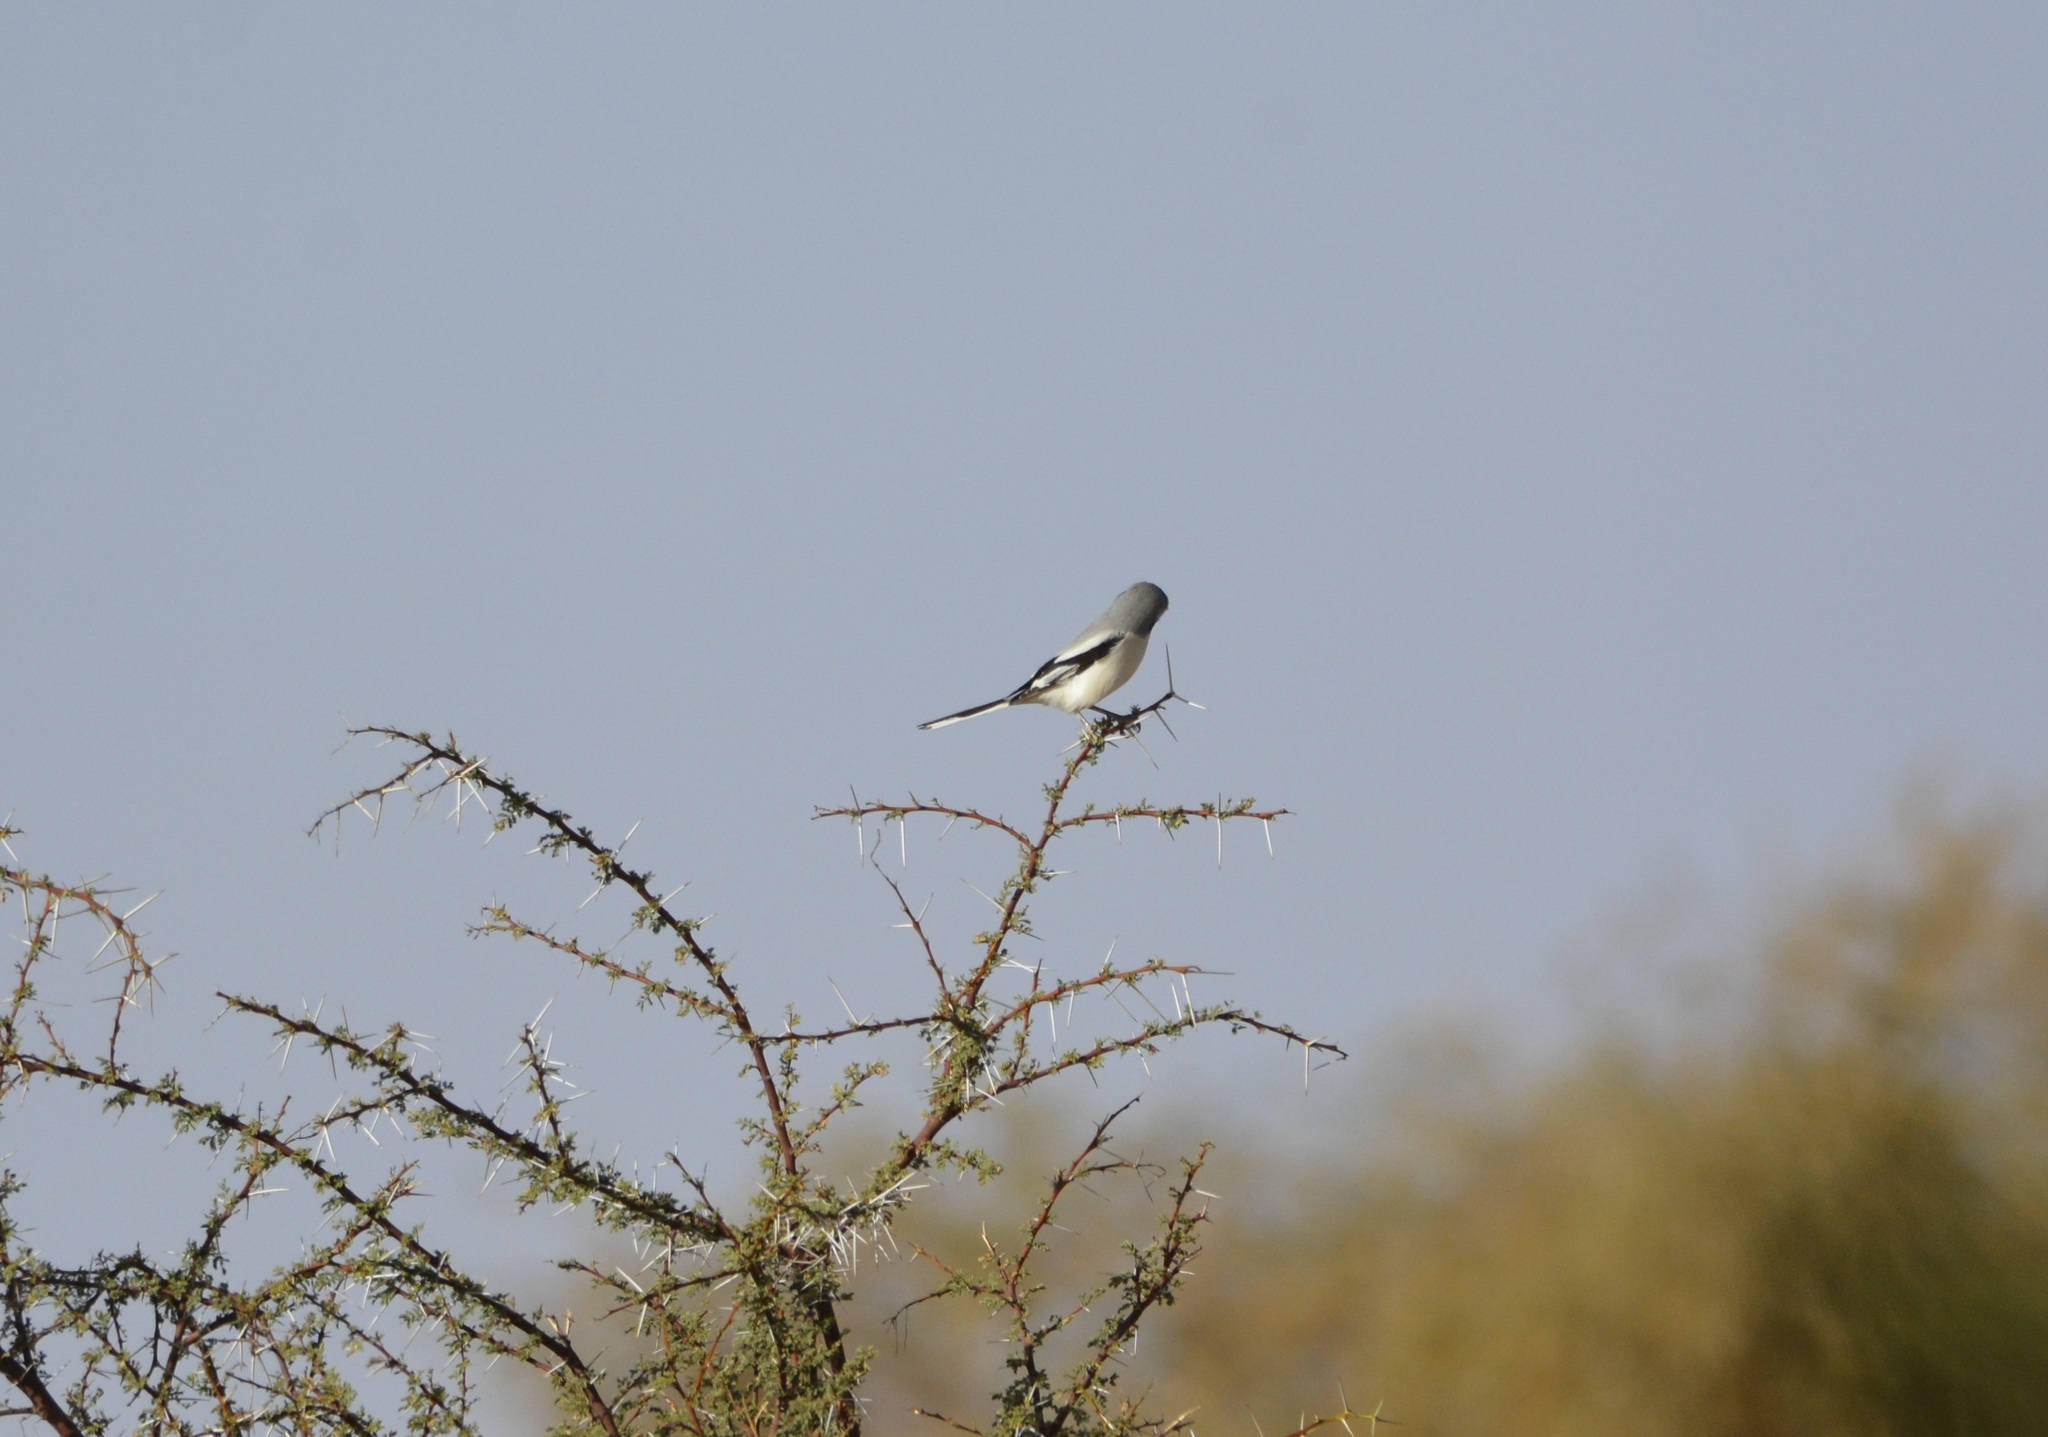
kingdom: Animalia
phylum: Chordata
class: Aves
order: Passeriformes
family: Laniidae
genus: Lanius
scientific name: Lanius excubitor
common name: Great grey shrike
